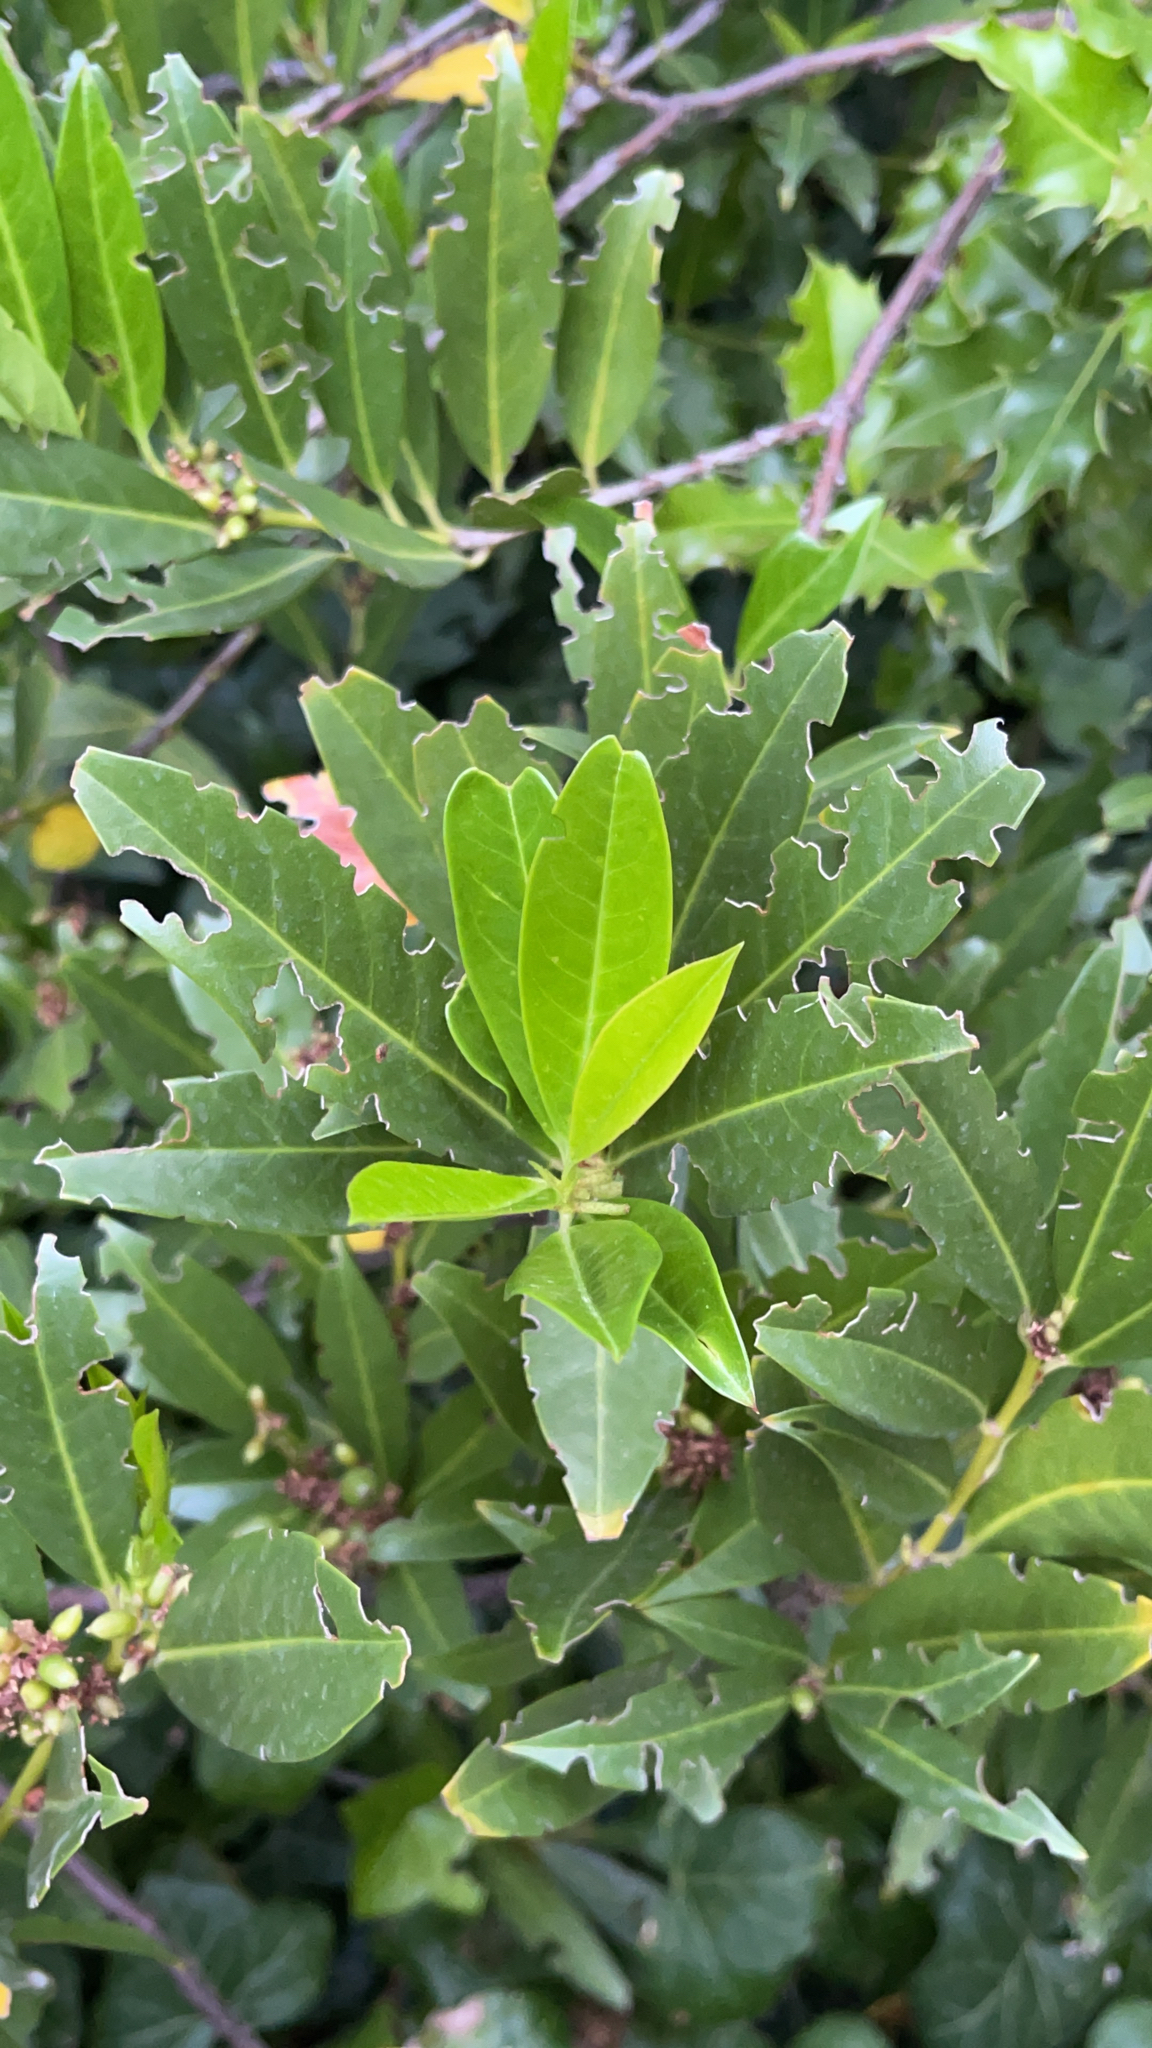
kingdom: Plantae
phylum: Tracheophyta
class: Magnoliopsida
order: Rosales
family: Rosaceae
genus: Prunus
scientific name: Prunus laurocerasus
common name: Cherry laurel
